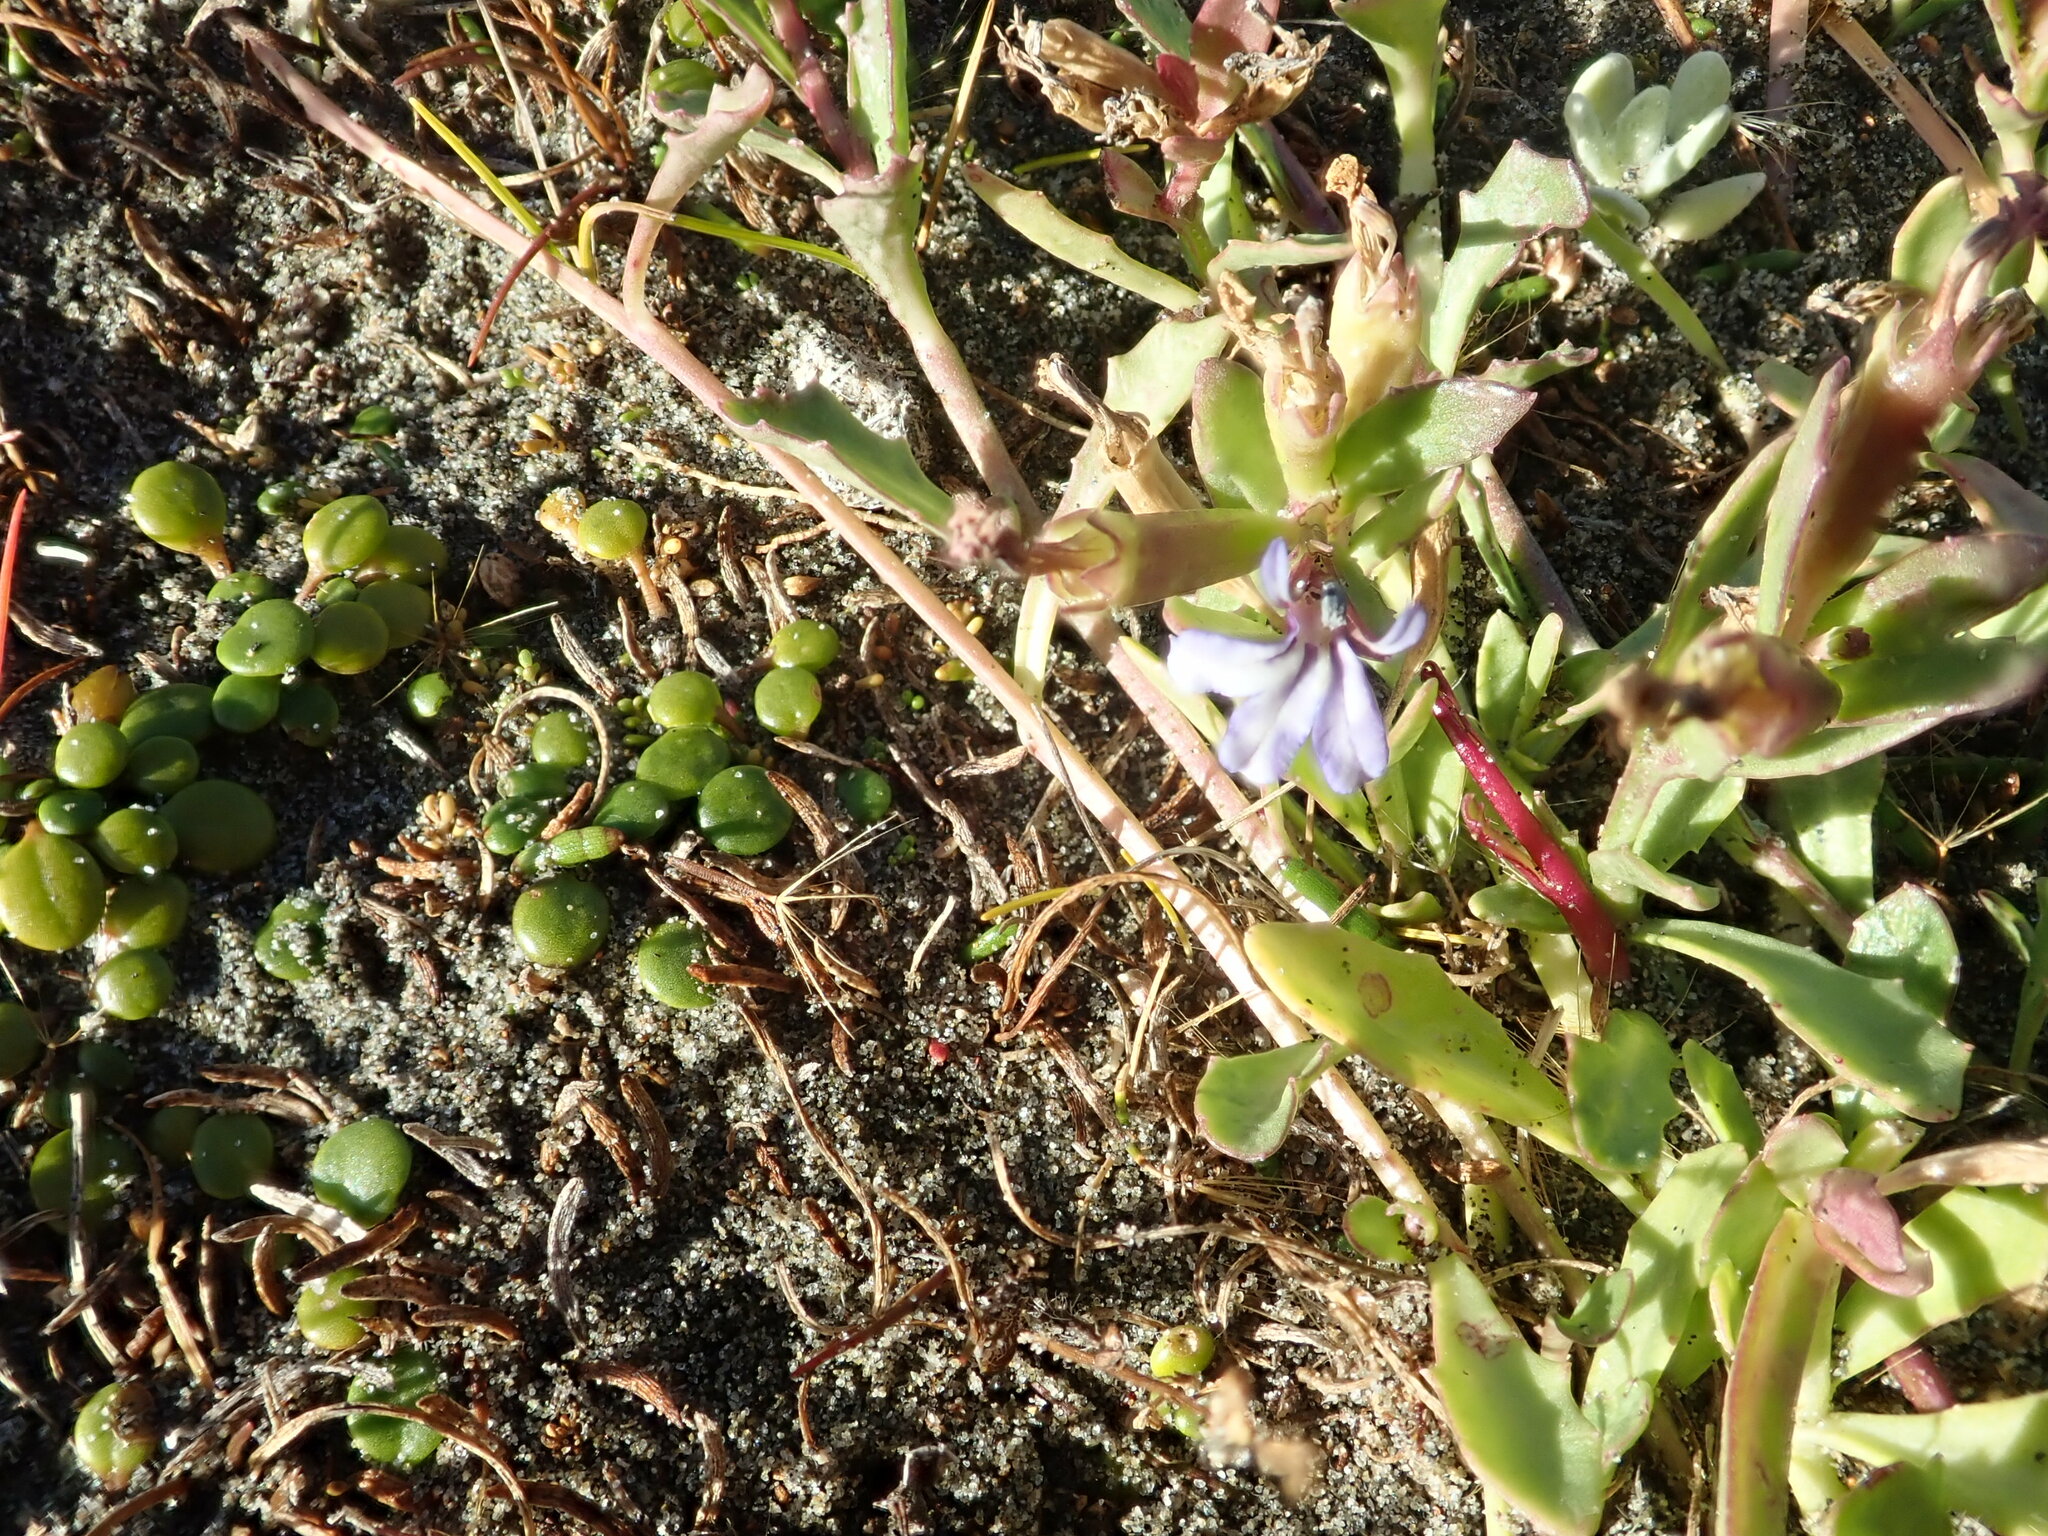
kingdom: Plantae
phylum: Tracheophyta
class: Magnoliopsida
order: Asterales
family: Campanulaceae
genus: Lobelia
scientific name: Lobelia anceps
